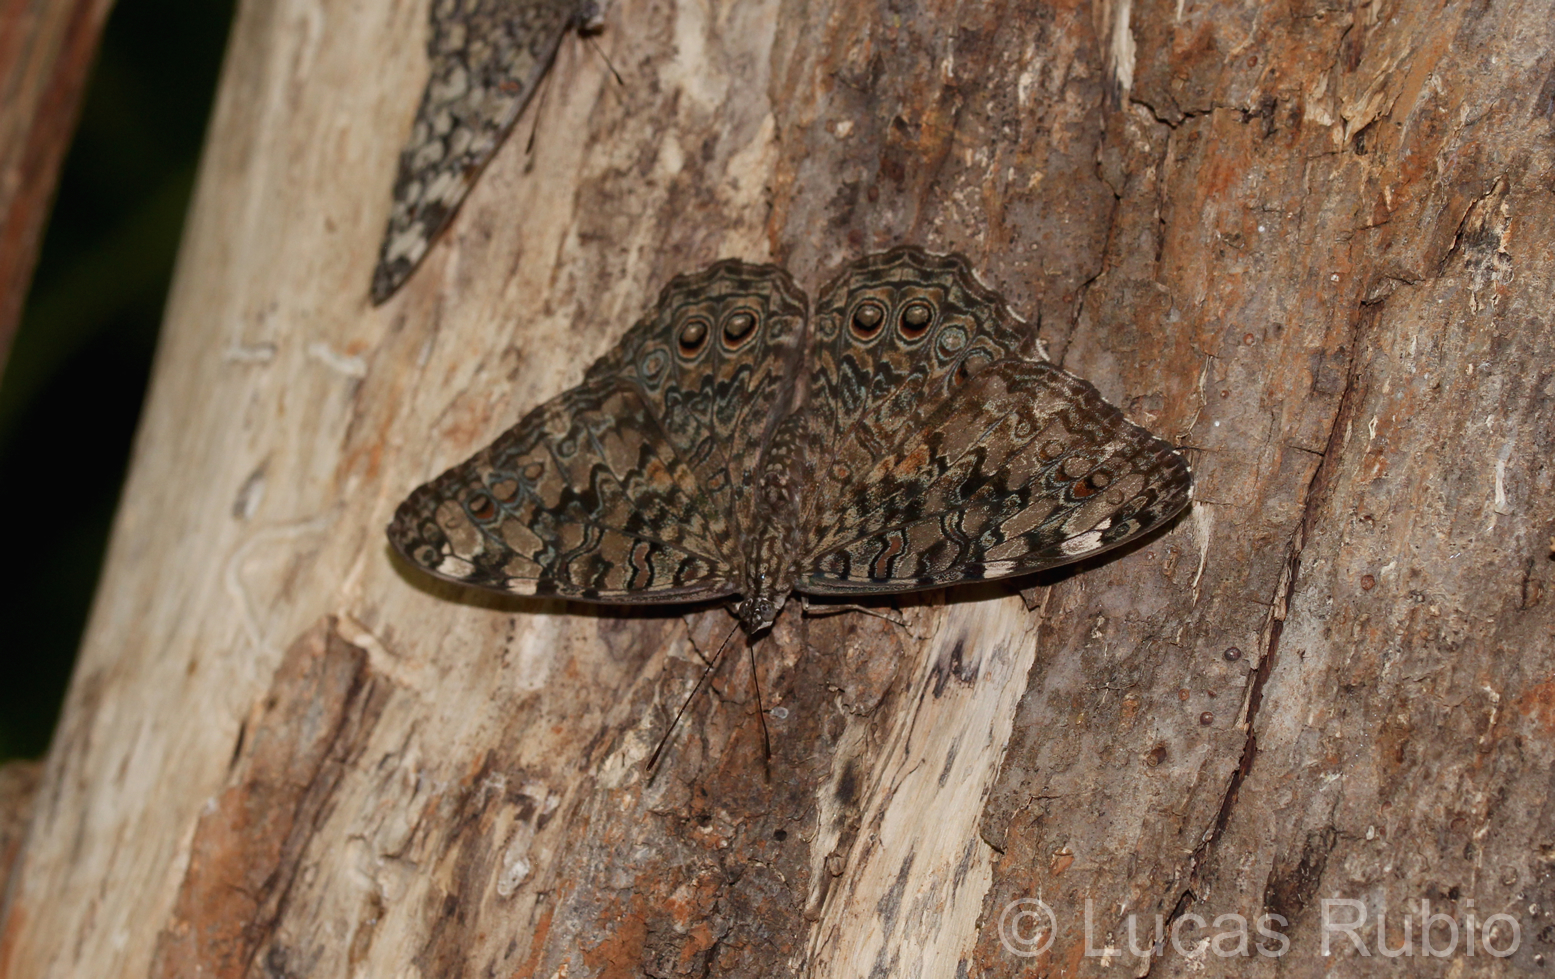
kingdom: Animalia
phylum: Arthropoda
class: Insecta
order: Lepidoptera
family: Nymphalidae
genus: Hamadryas
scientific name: Hamadryas februa
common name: Gray cracker
